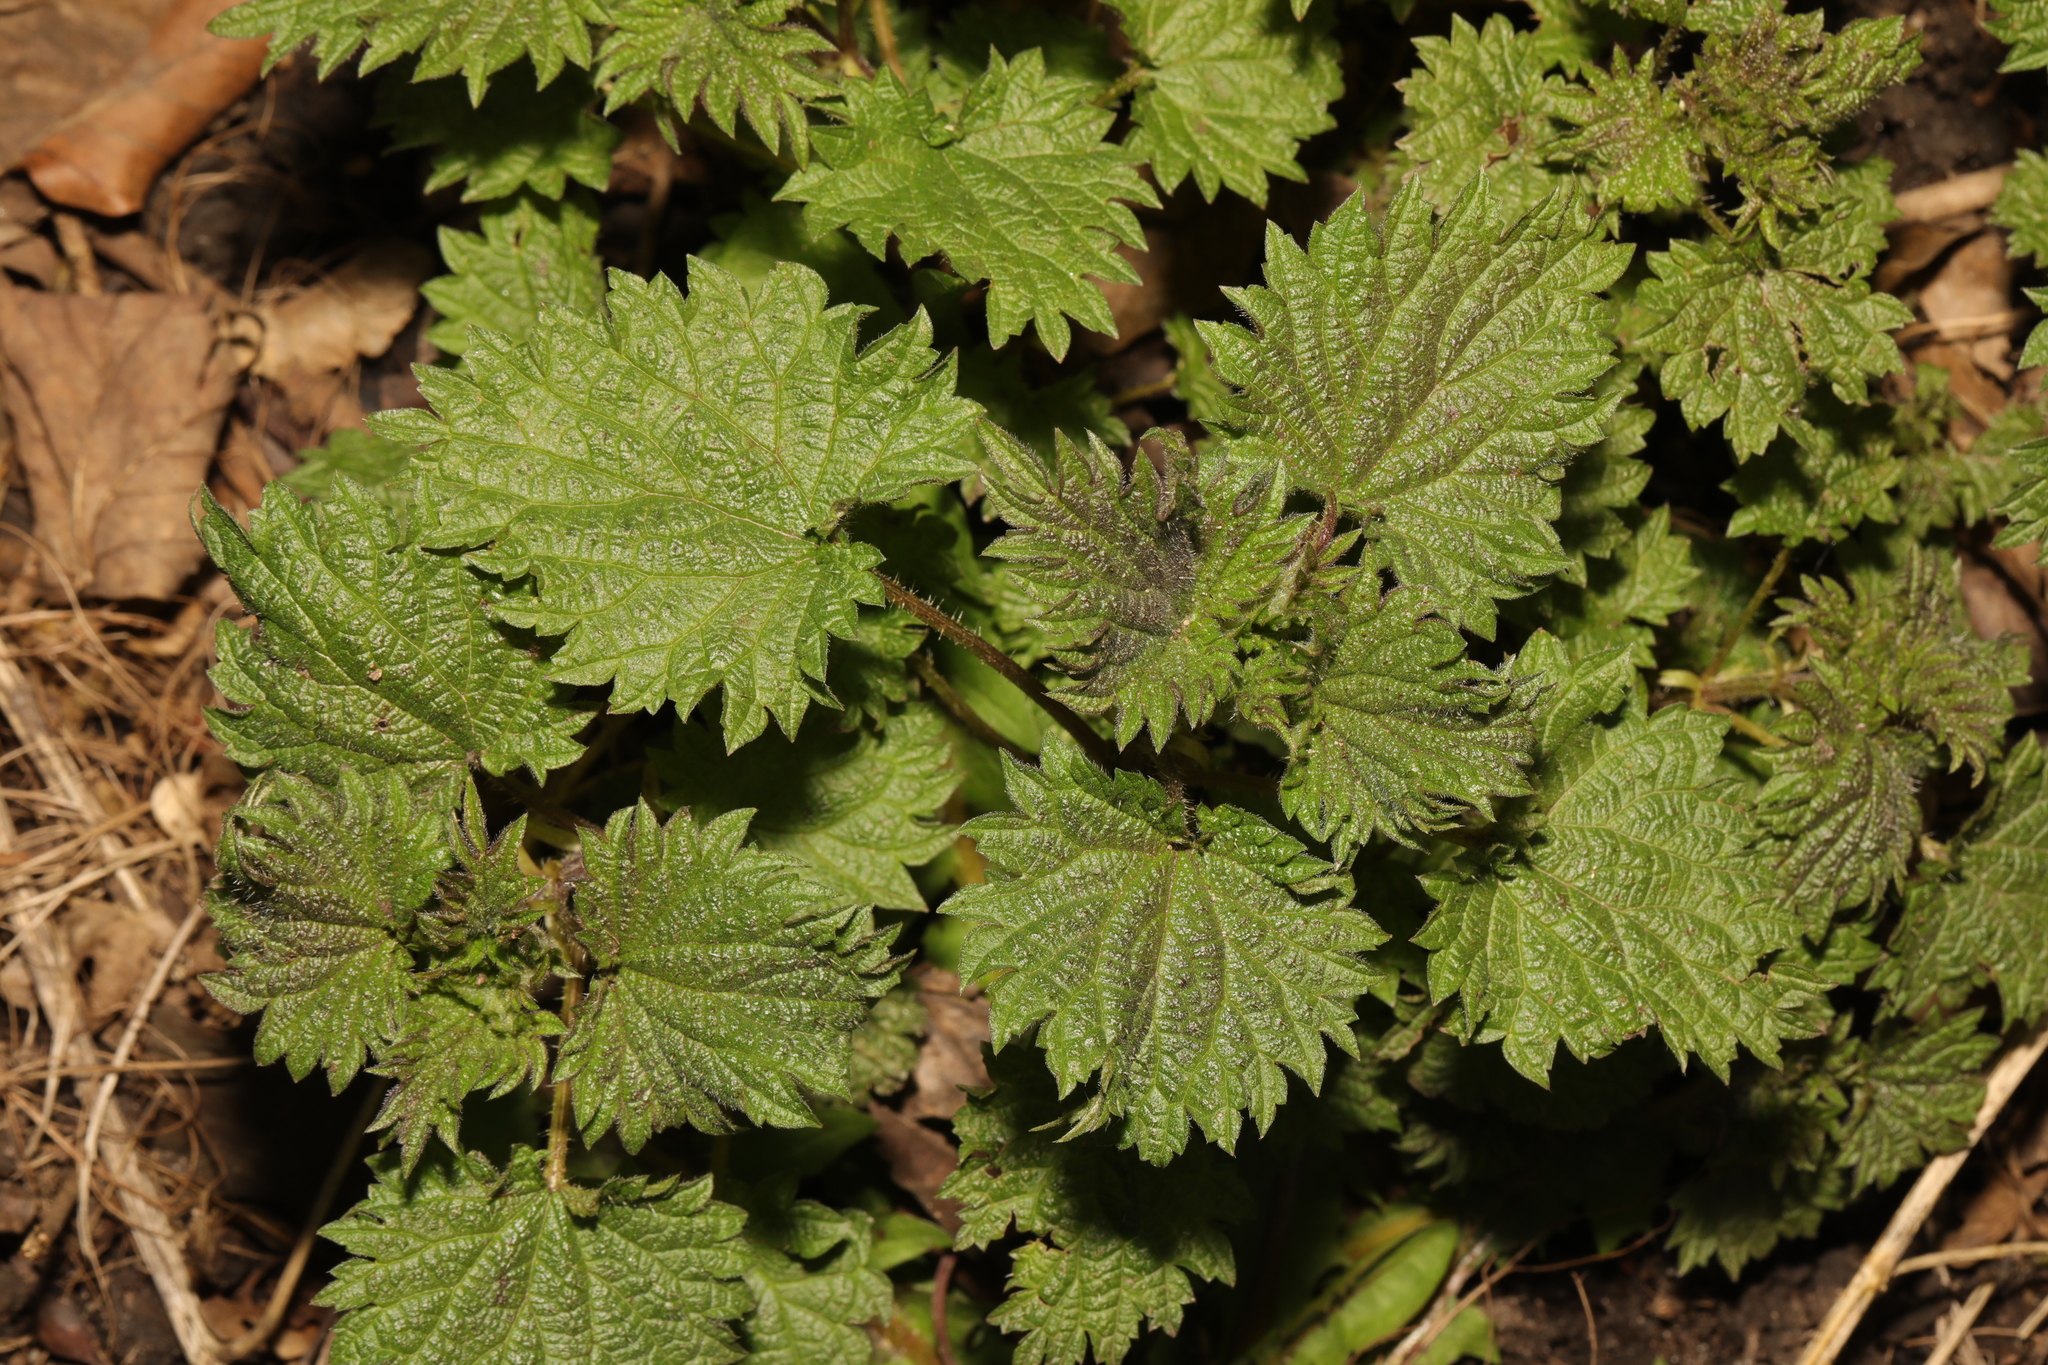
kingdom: Plantae
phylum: Tracheophyta
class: Magnoliopsida
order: Rosales
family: Urticaceae
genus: Urtica
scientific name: Urtica dioica
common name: Common nettle
